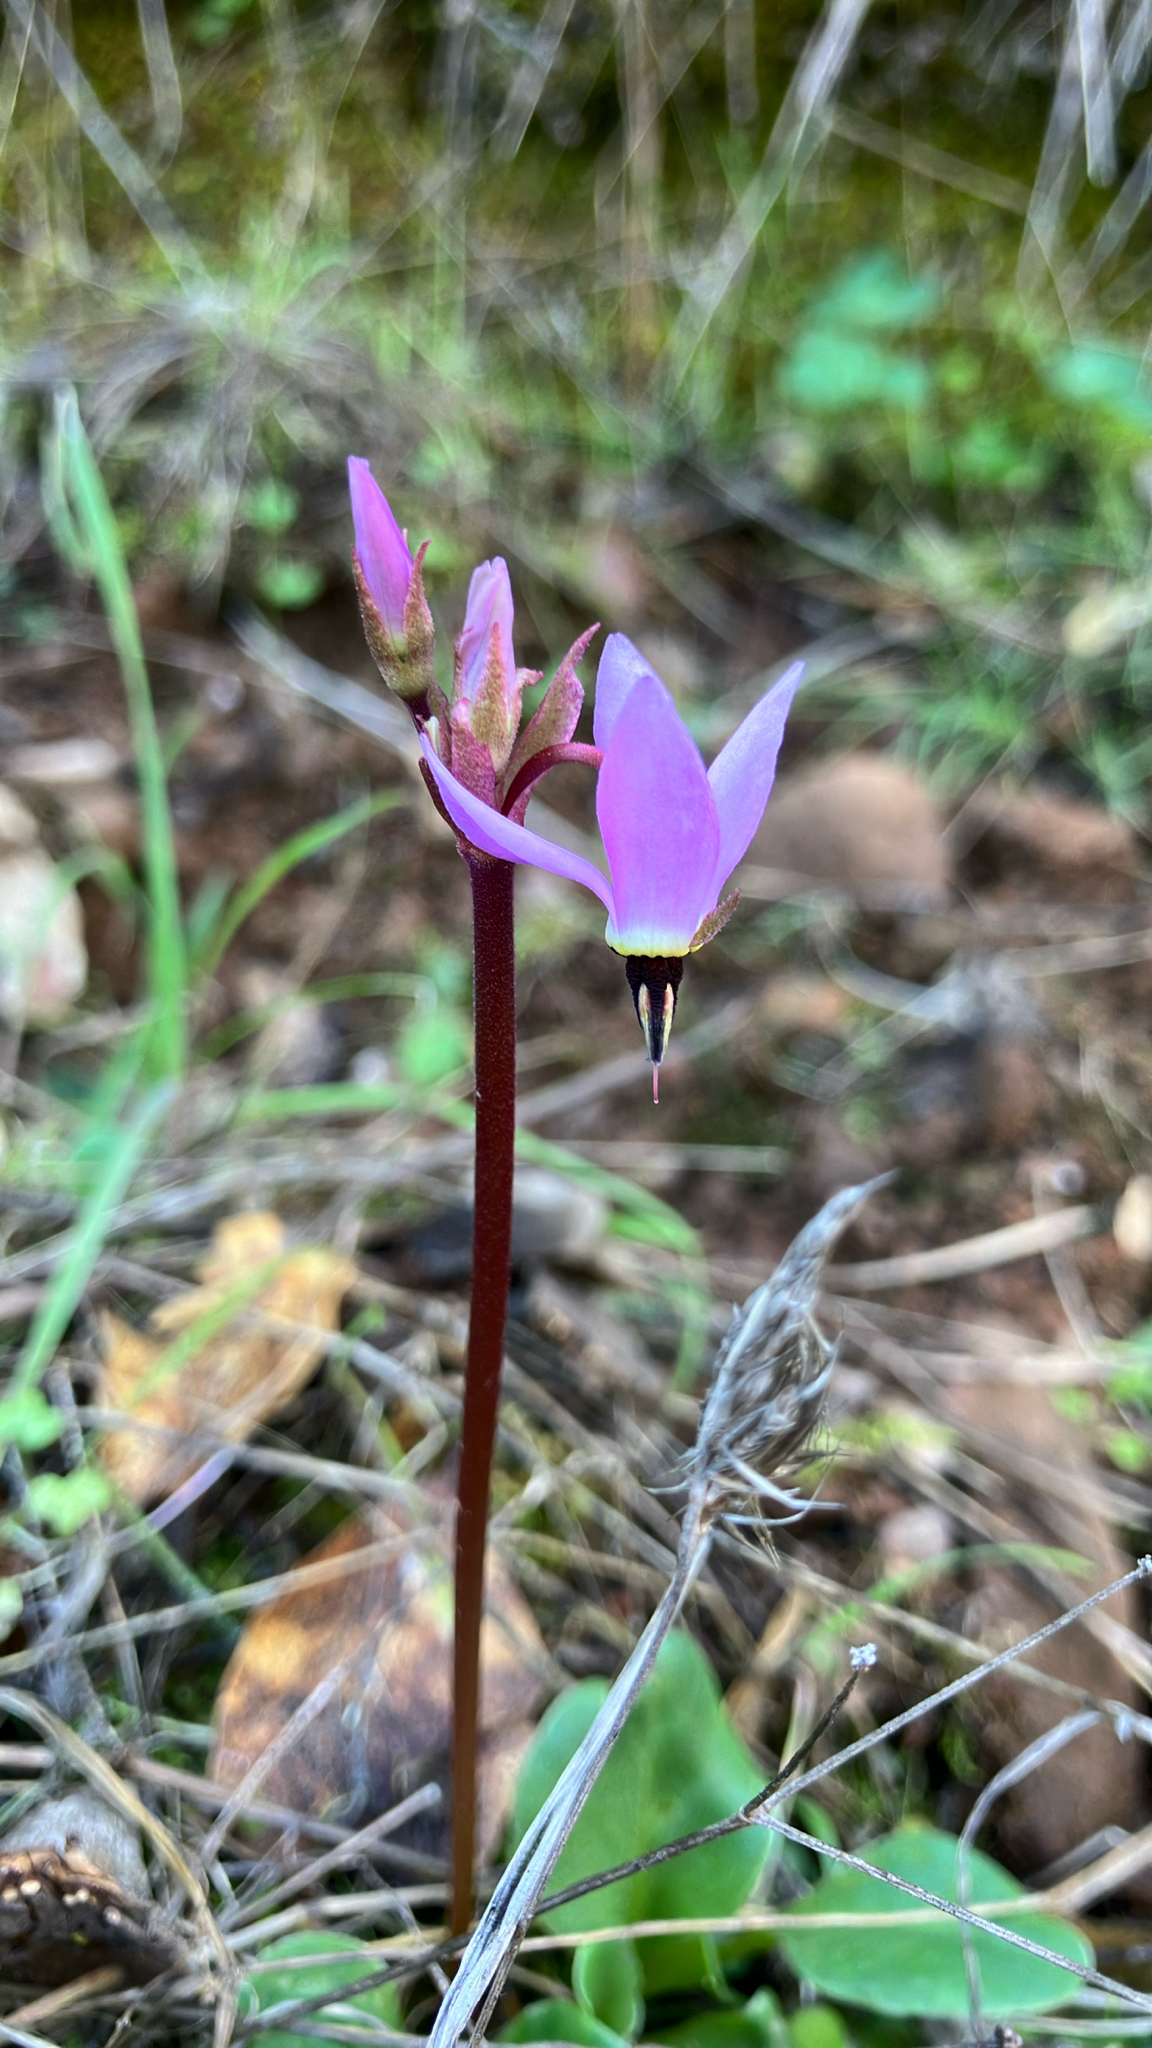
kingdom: Plantae
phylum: Tracheophyta
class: Magnoliopsida
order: Ericales
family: Primulaceae
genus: Dodecatheon
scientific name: Dodecatheon hendersonii
